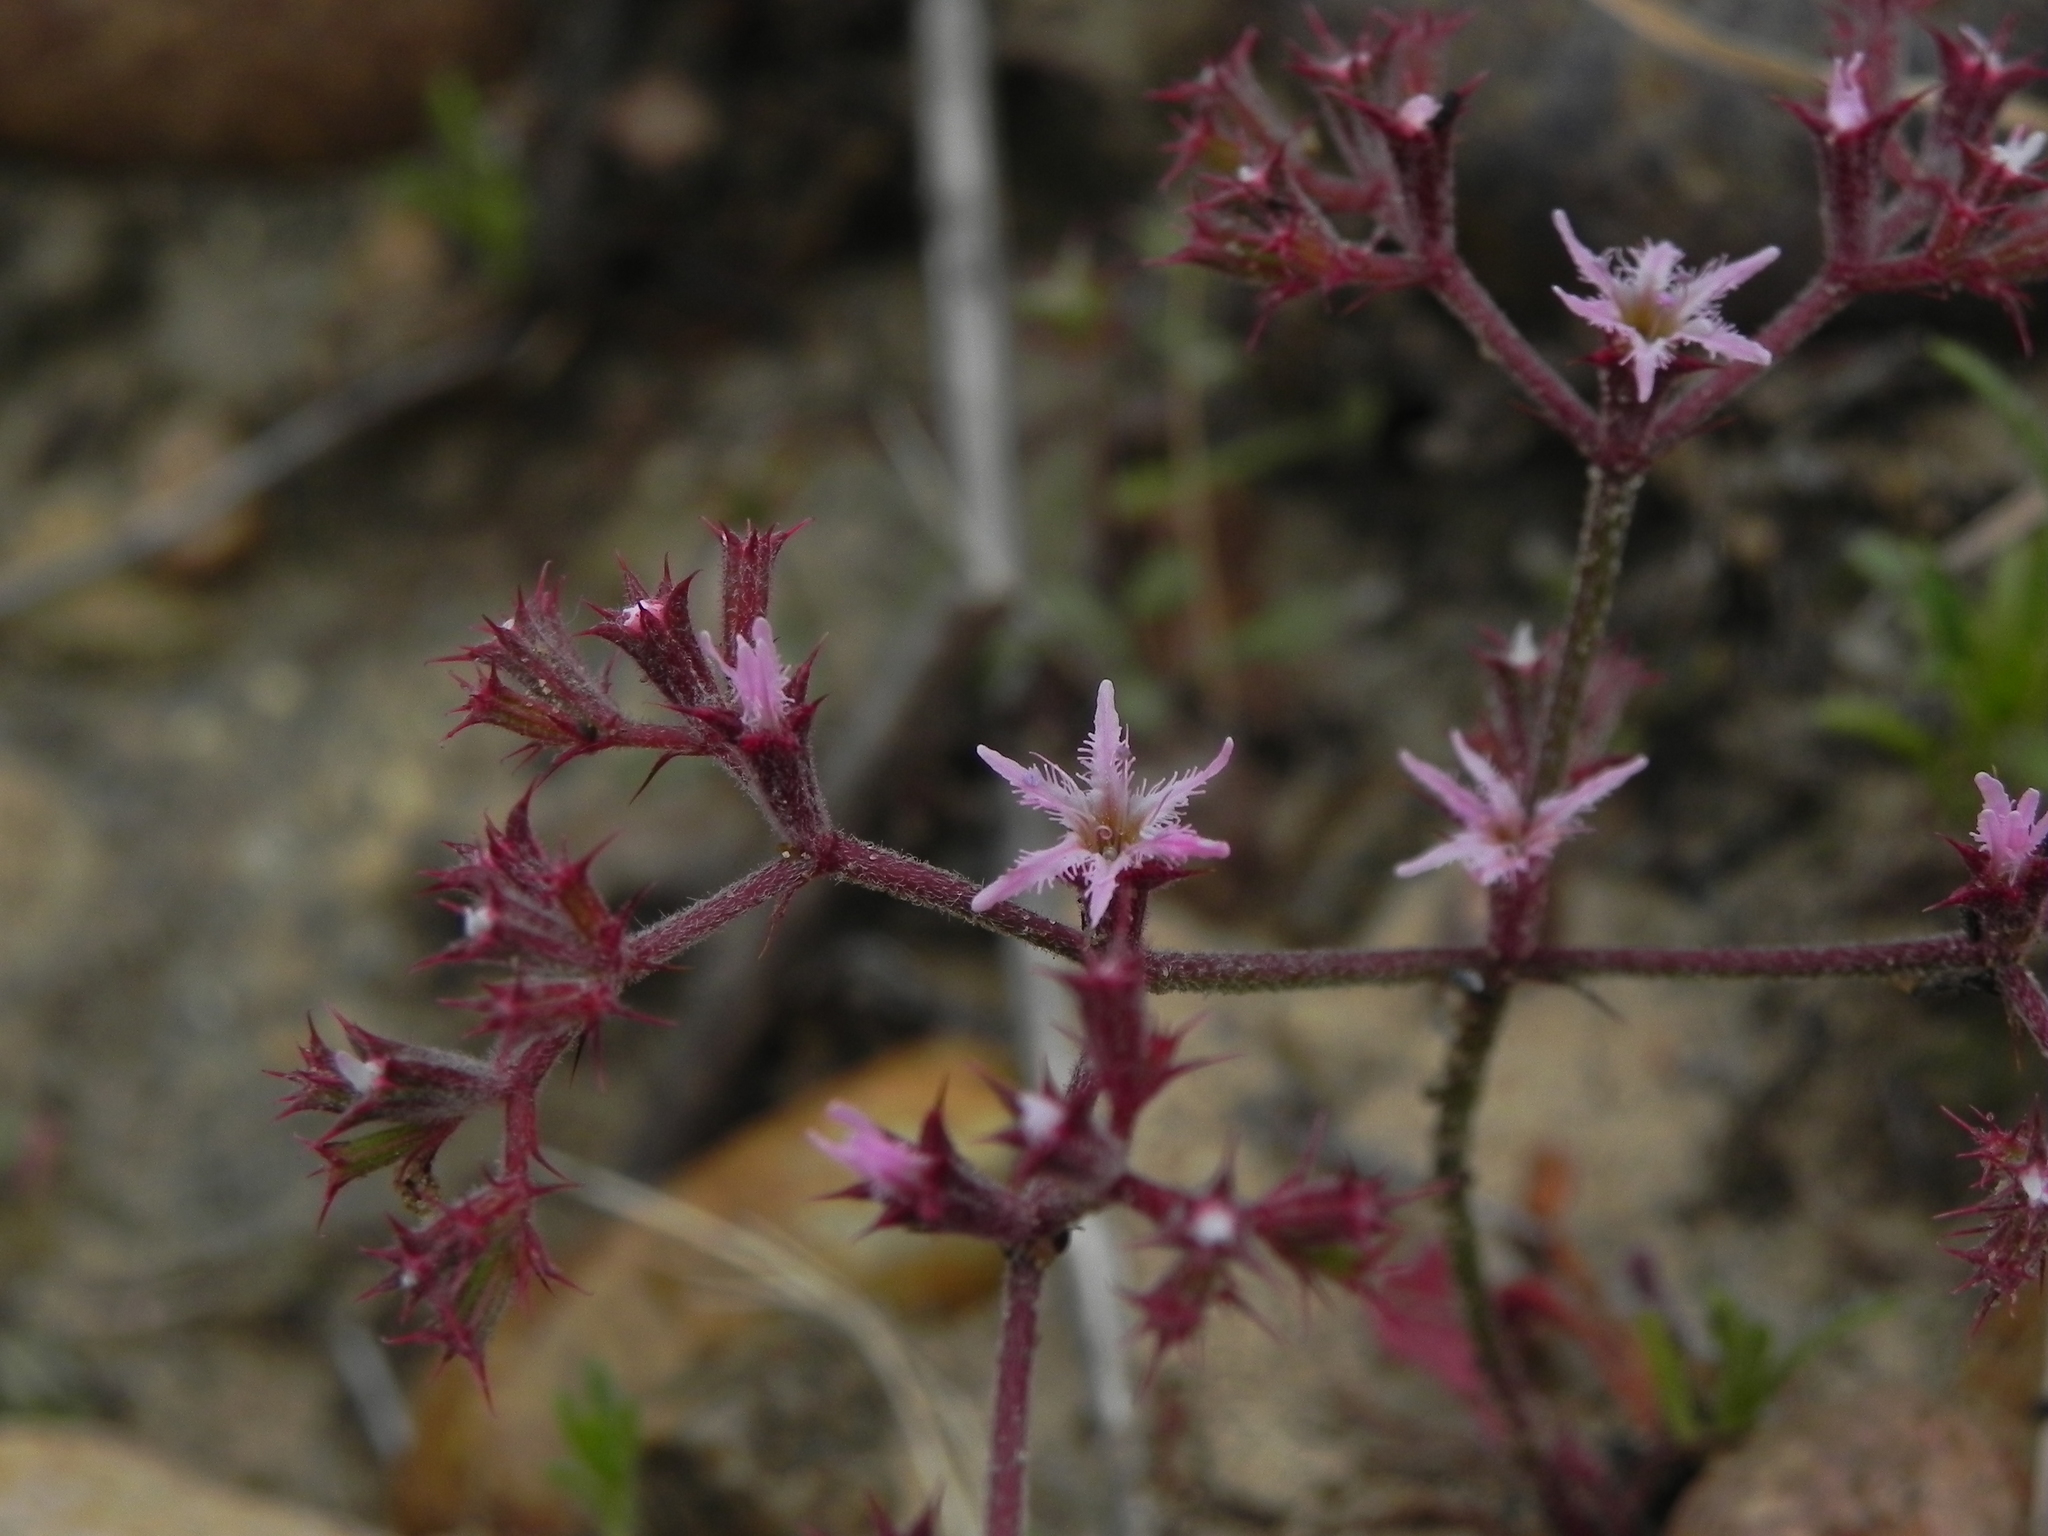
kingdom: Plantae
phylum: Tracheophyta
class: Magnoliopsida
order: Caryophyllales
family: Polygonaceae
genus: Chorizanthe
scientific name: Chorizanthe fimbriata
